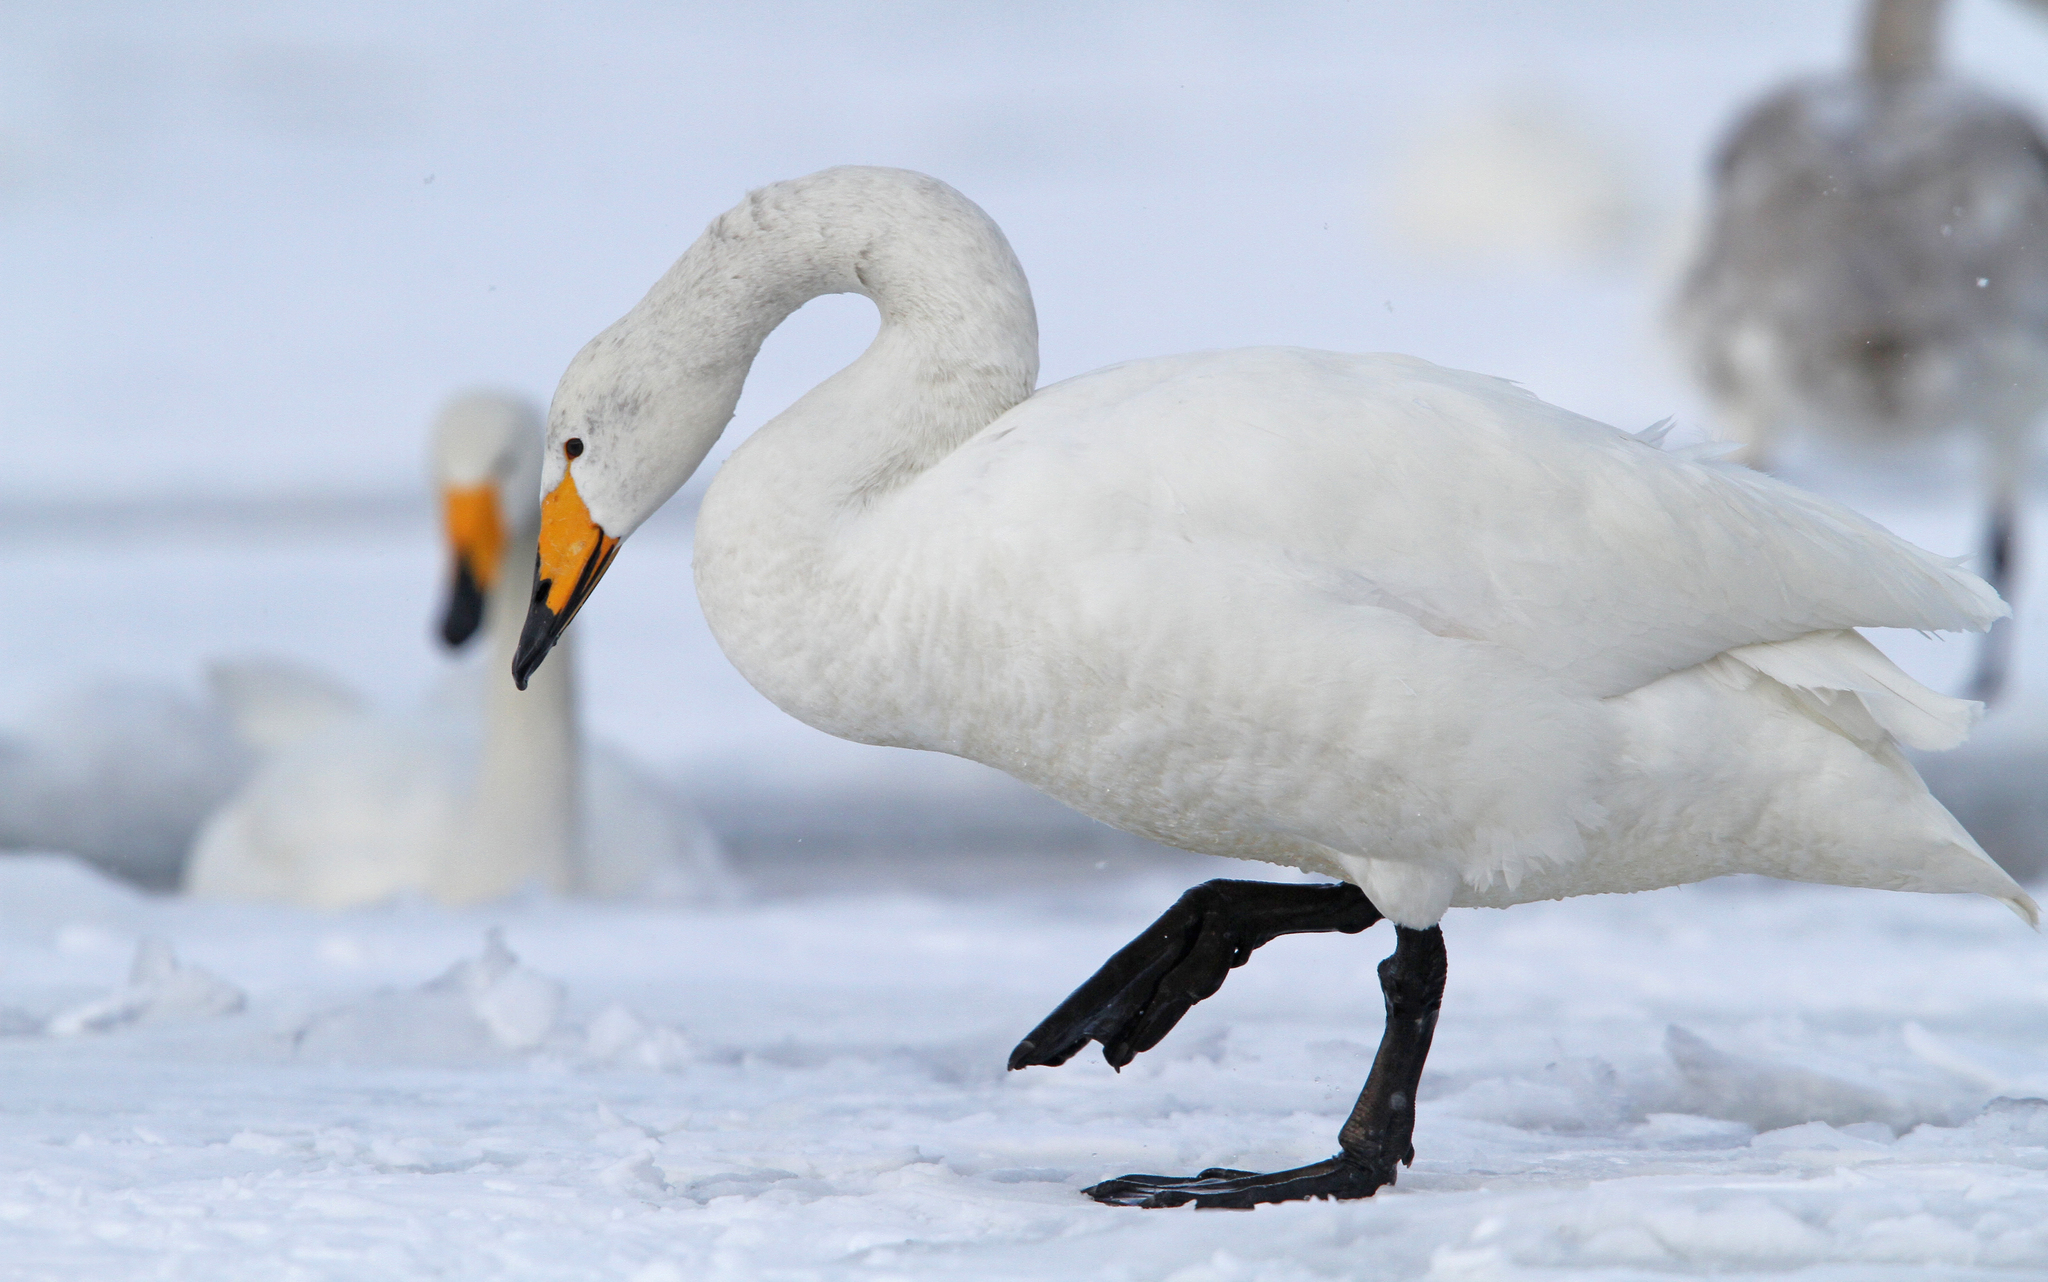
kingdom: Animalia
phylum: Chordata
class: Aves
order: Anseriformes
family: Anatidae
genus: Cygnus
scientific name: Cygnus cygnus
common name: Whooper swan
